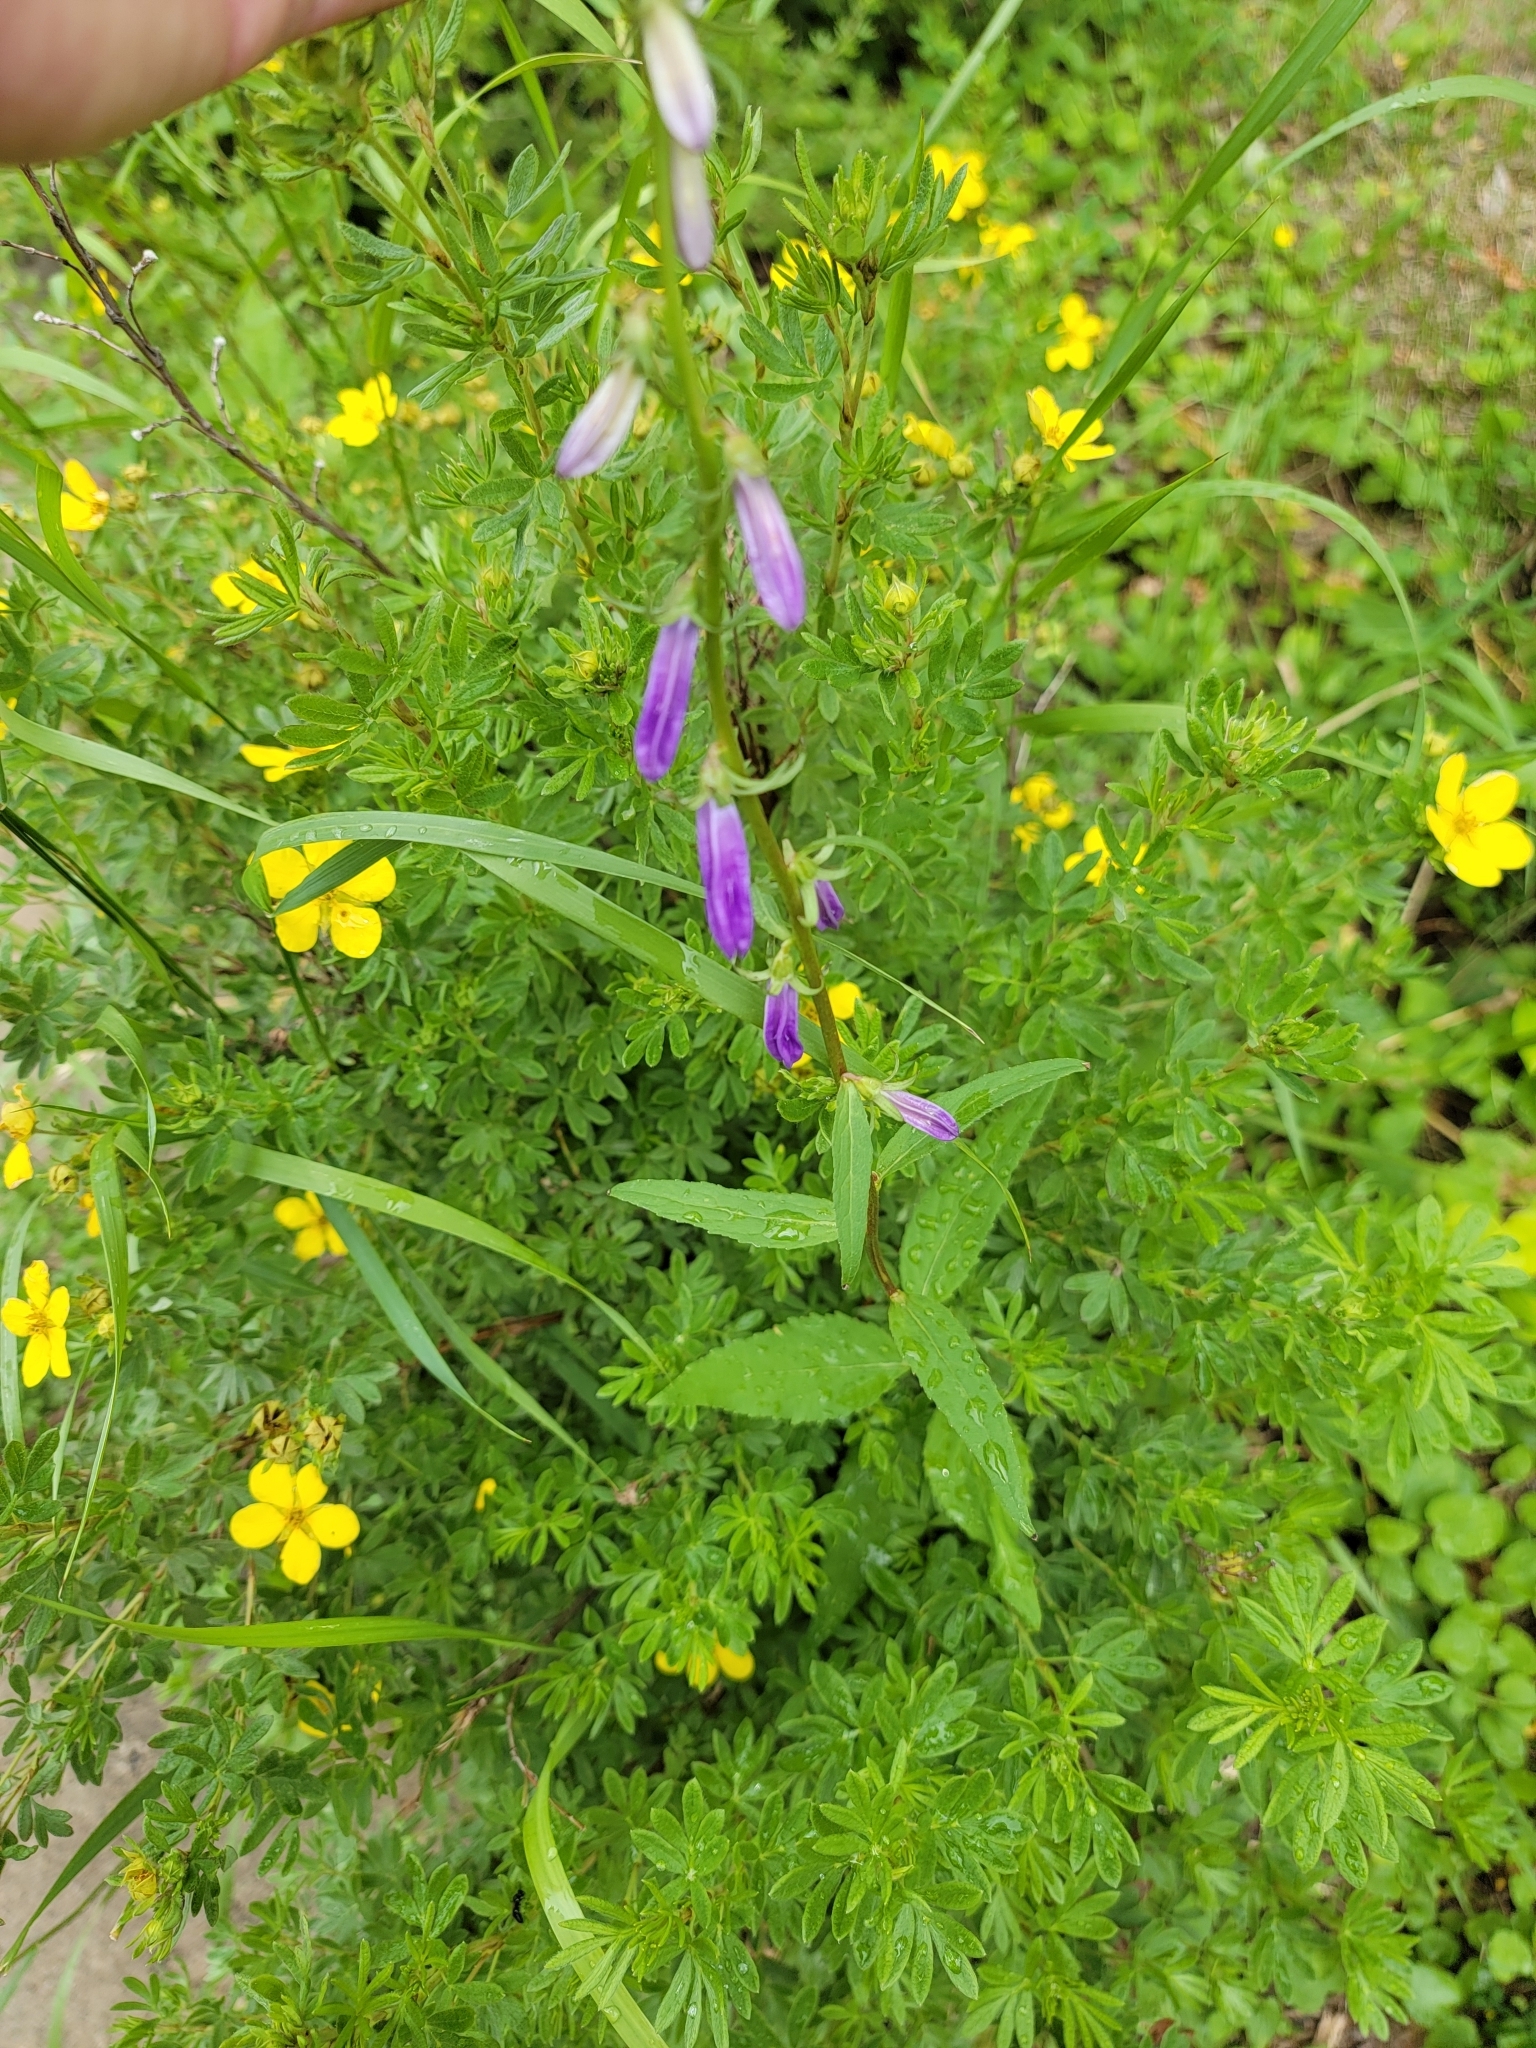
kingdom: Plantae
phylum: Tracheophyta
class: Magnoliopsida
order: Asterales
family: Campanulaceae
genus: Campanula
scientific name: Campanula rapunculoides
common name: Creeping bellflower
